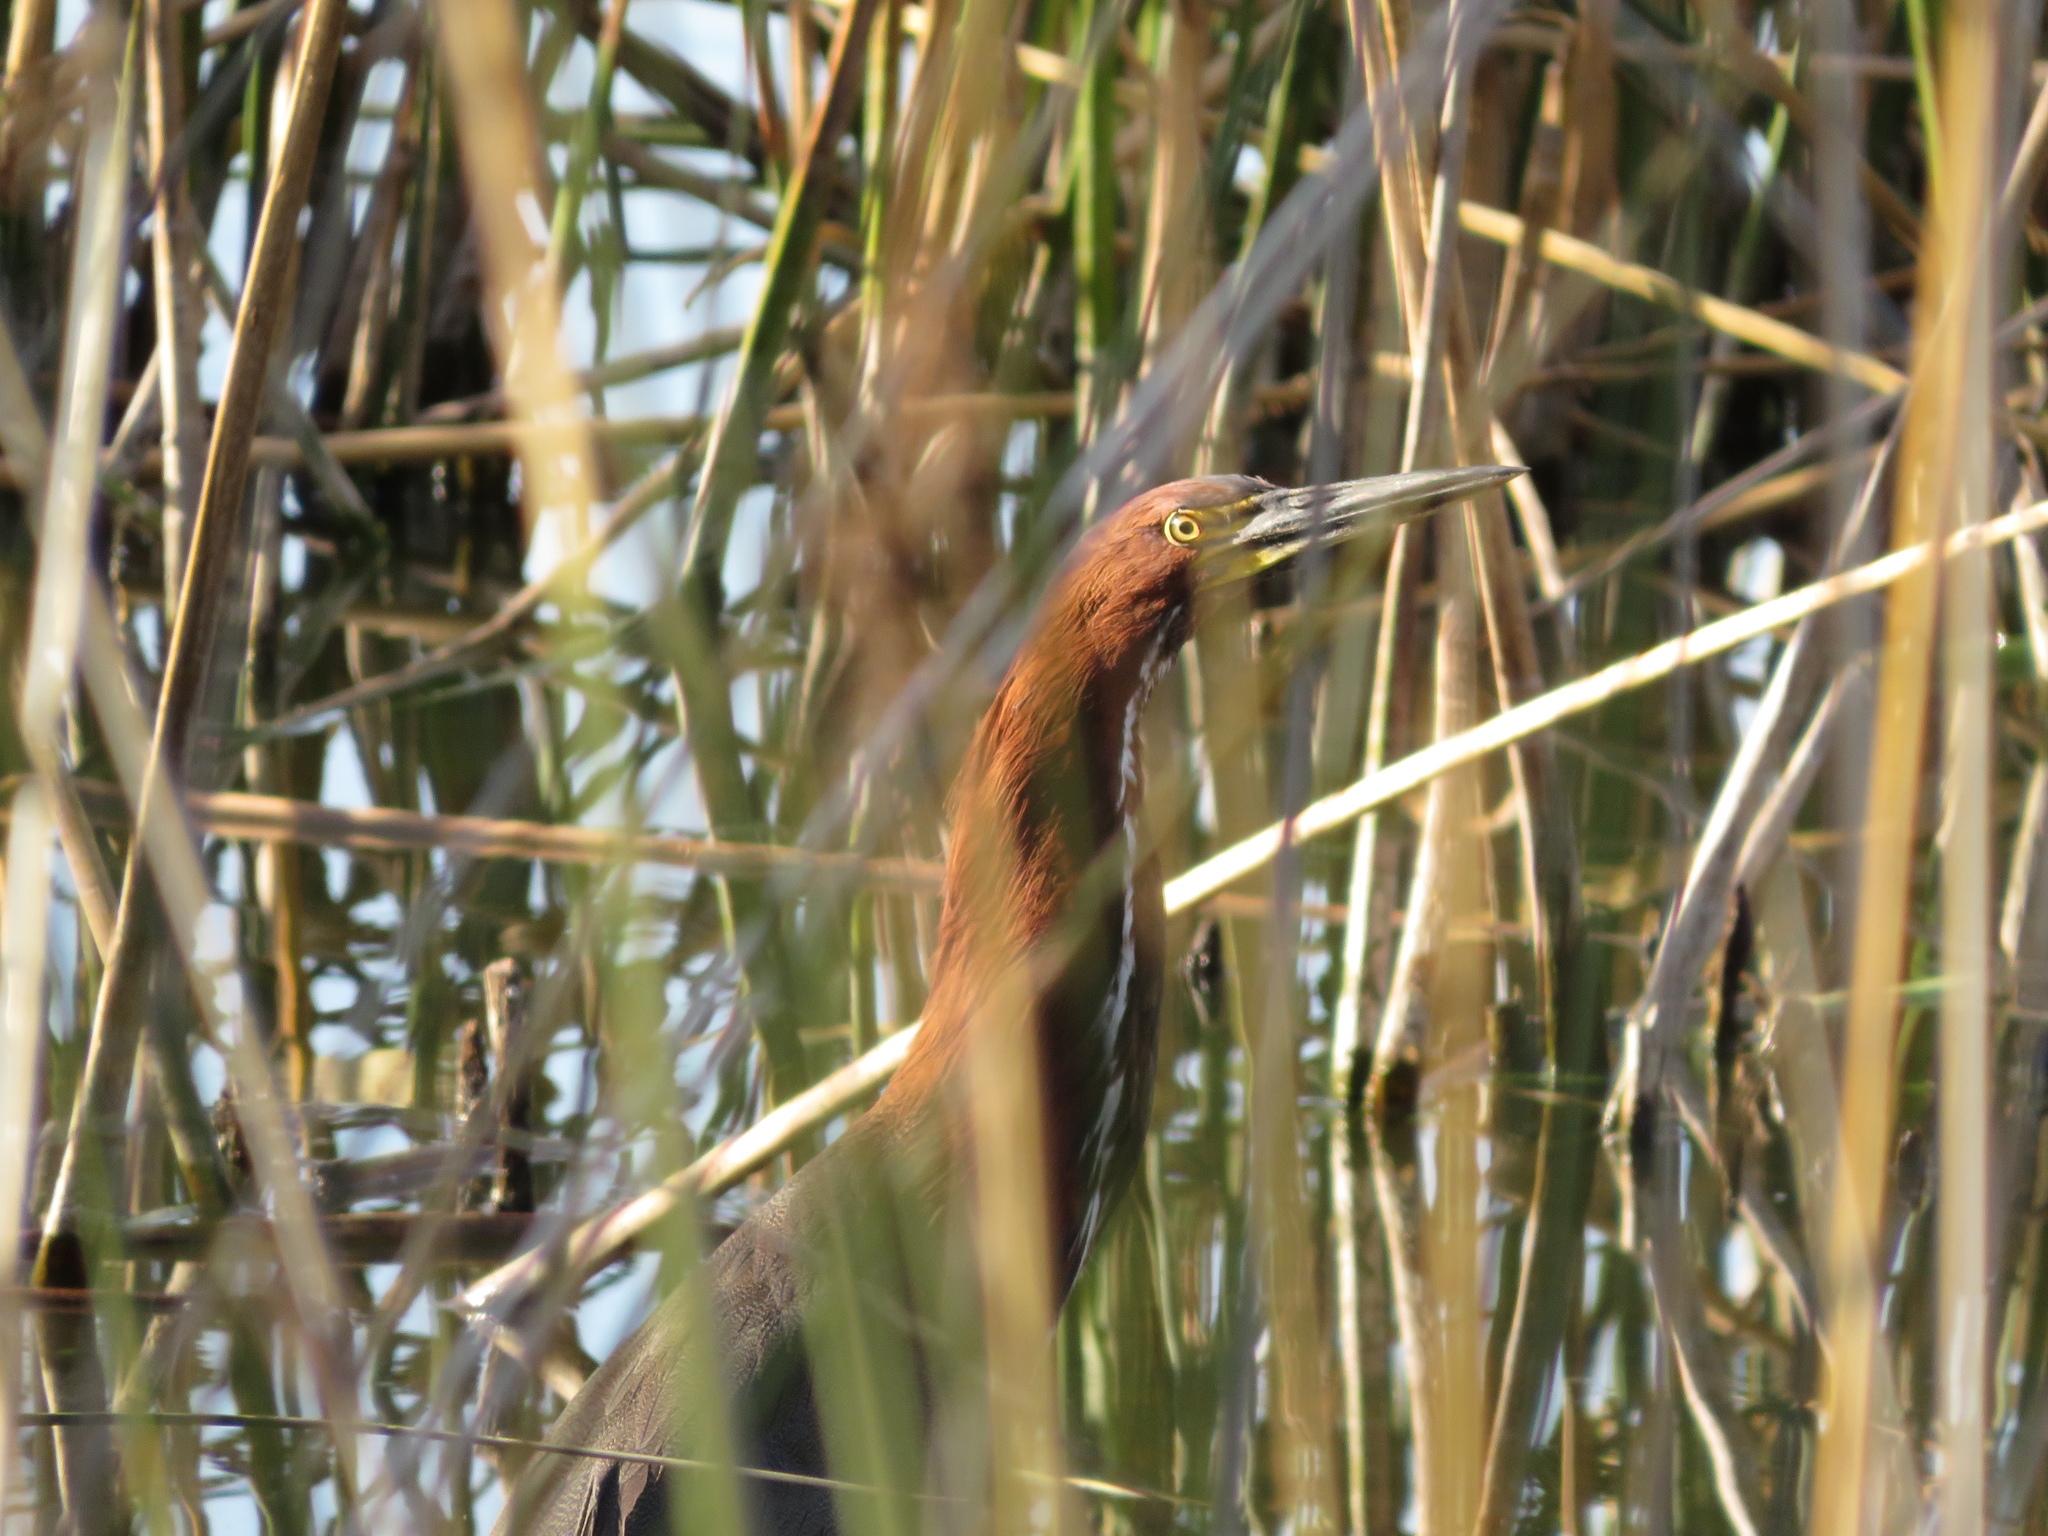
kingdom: Animalia
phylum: Chordata
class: Aves
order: Pelecaniformes
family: Ardeidae
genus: Tigrisoma
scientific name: Tigrisoma lineatum
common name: Rufescent tiger-heron
